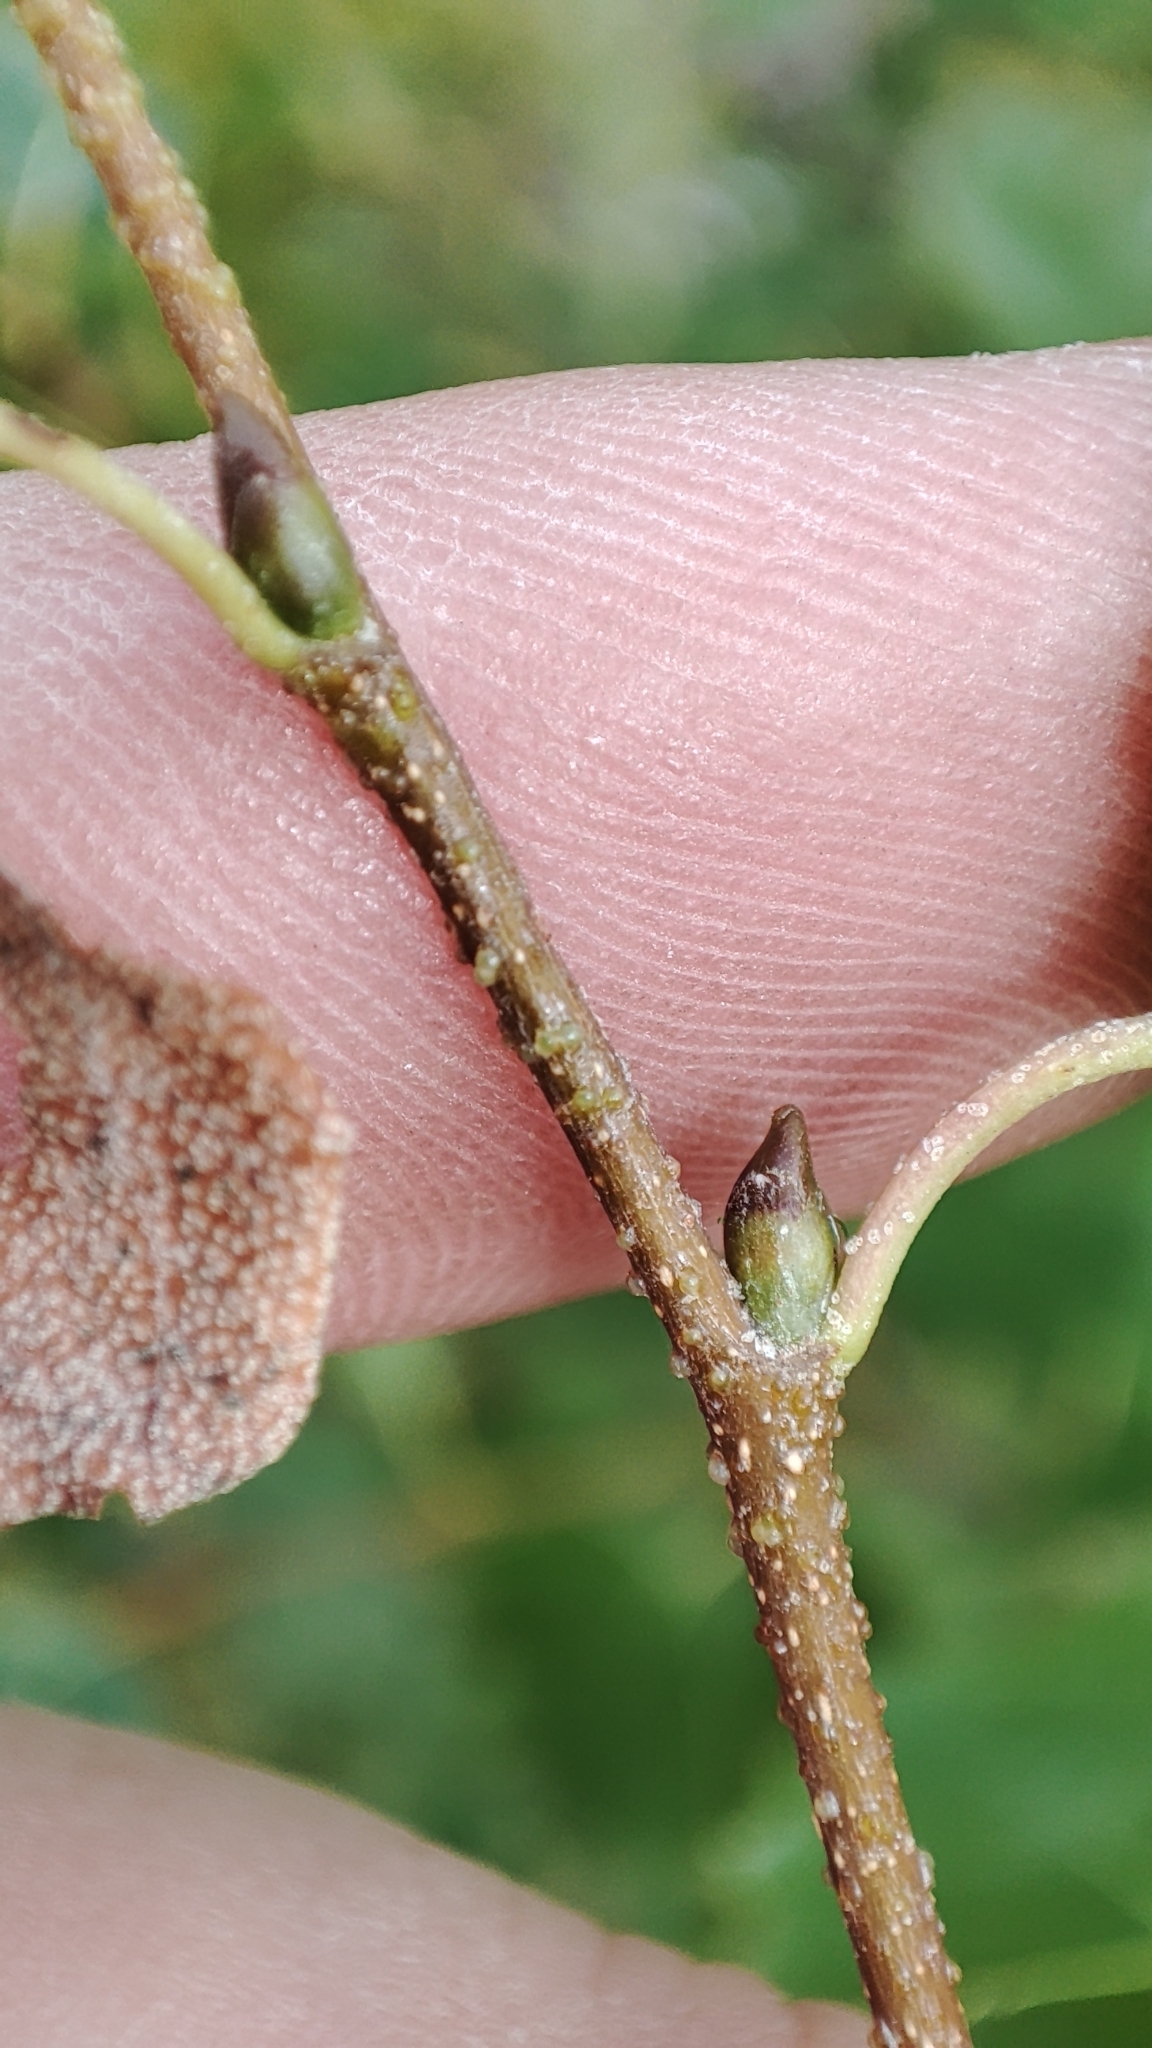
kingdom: Plantae
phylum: Tracheophyta
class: Magnoliopsida
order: Fagales
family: Betulaceae
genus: Betula
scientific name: Betula pubescens
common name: Downy birch
